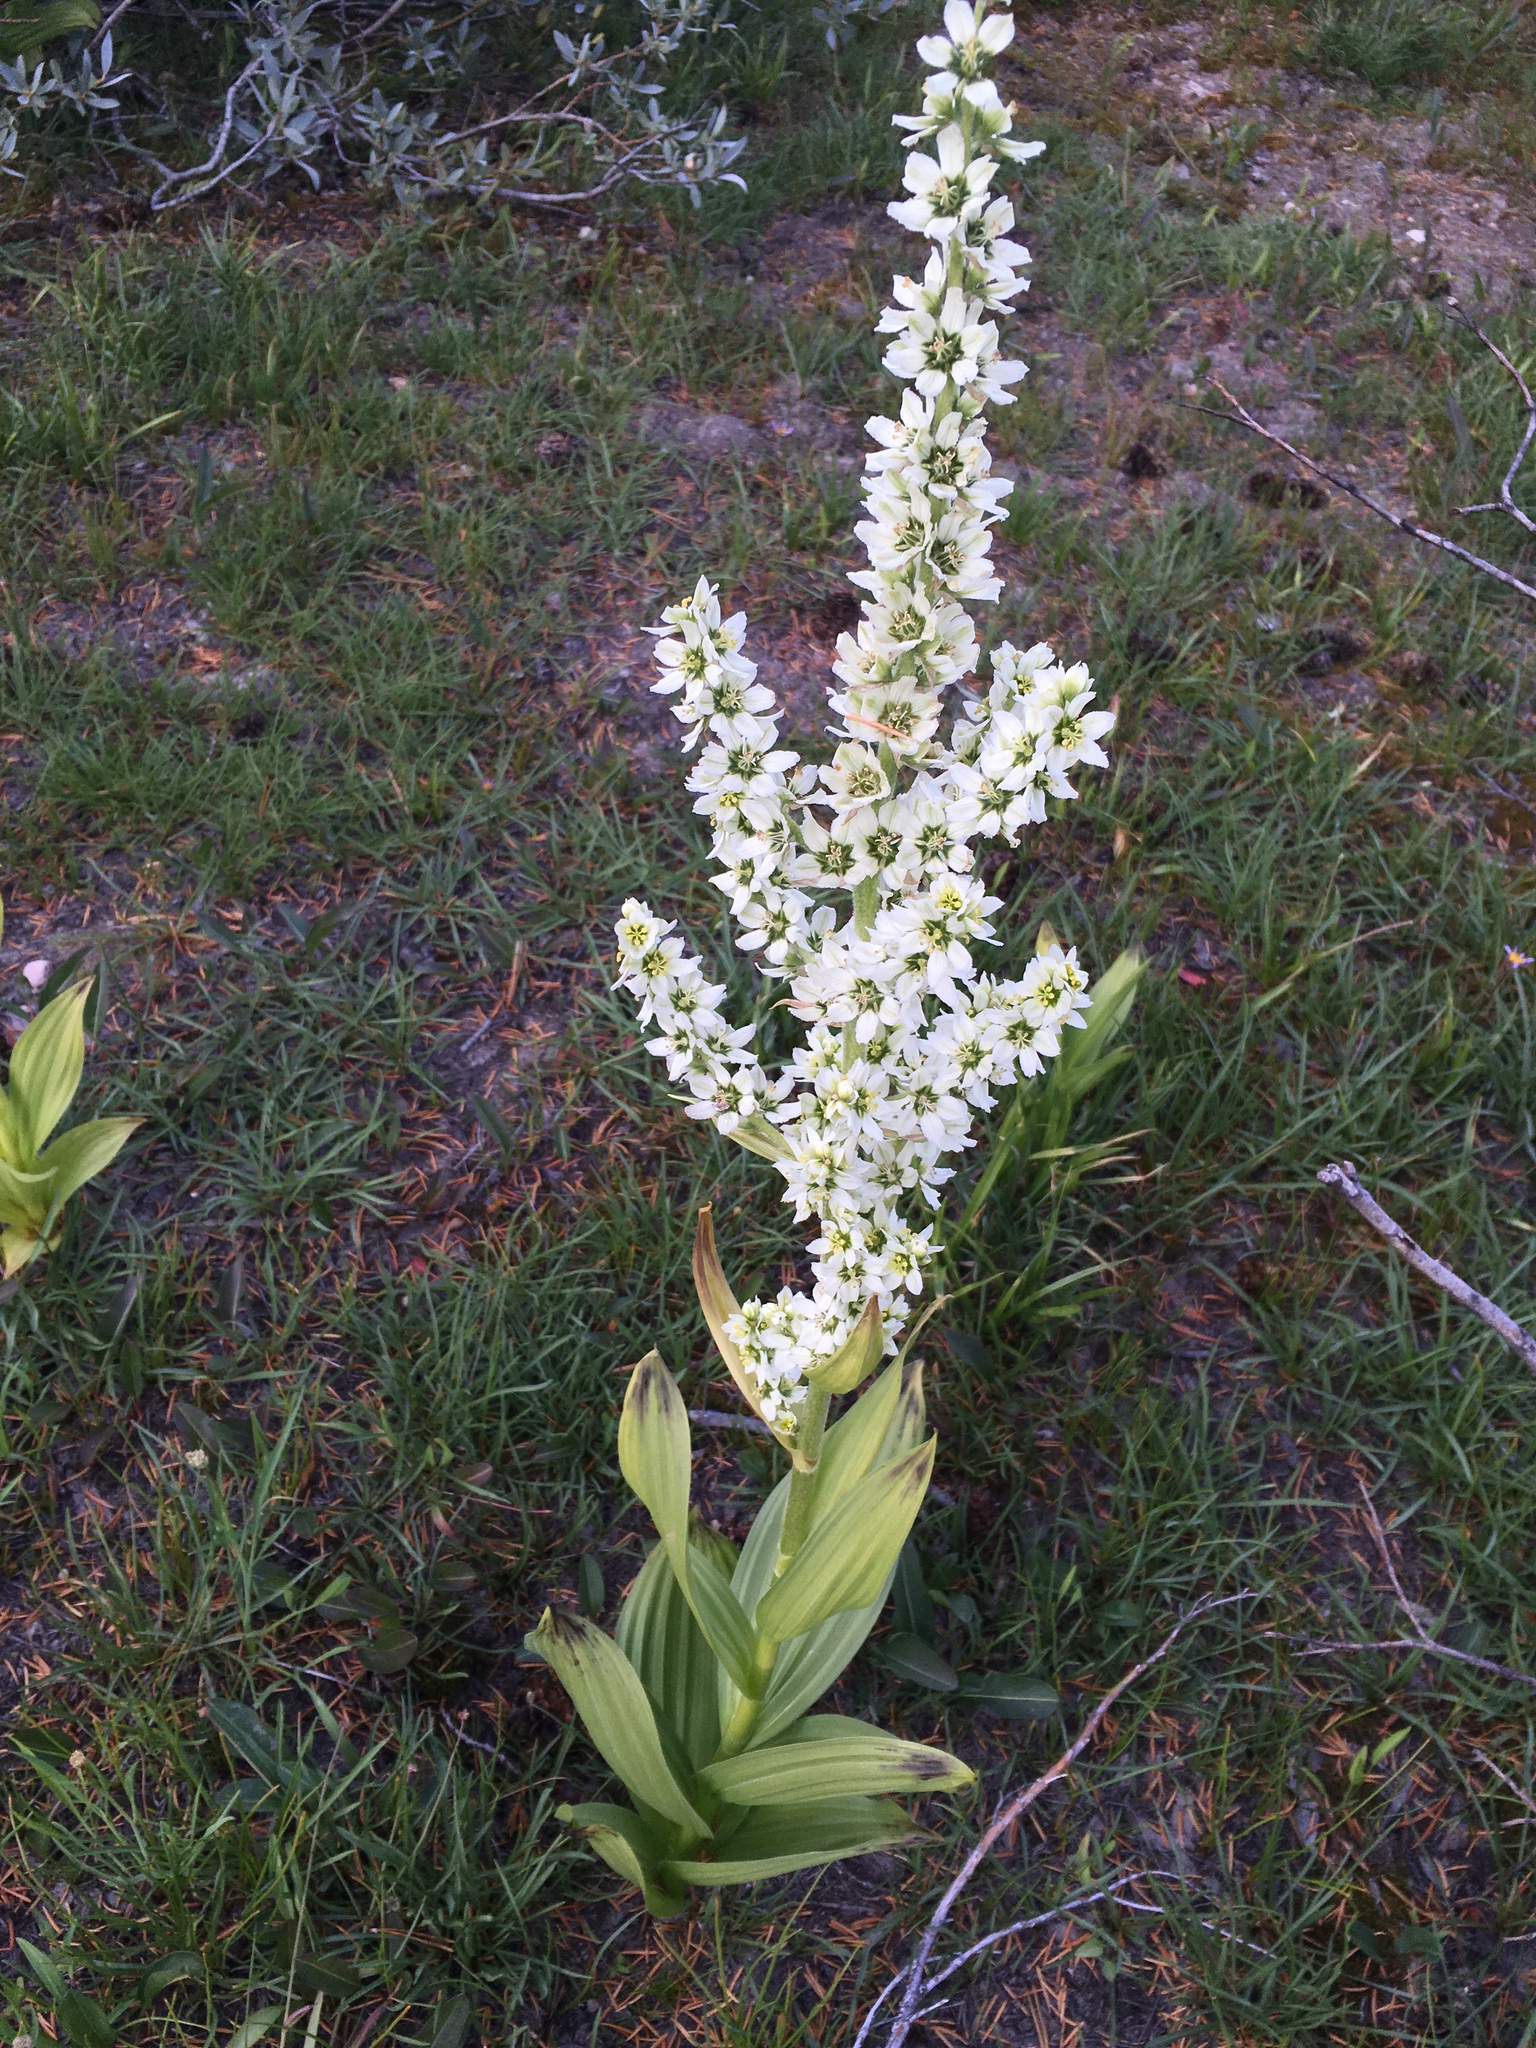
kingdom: Plantae
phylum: Tracheophyta
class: Liliopsida
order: Liliales
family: Melanthiaceae
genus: Veratrum
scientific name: Veratrum californicum
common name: California veratrum
